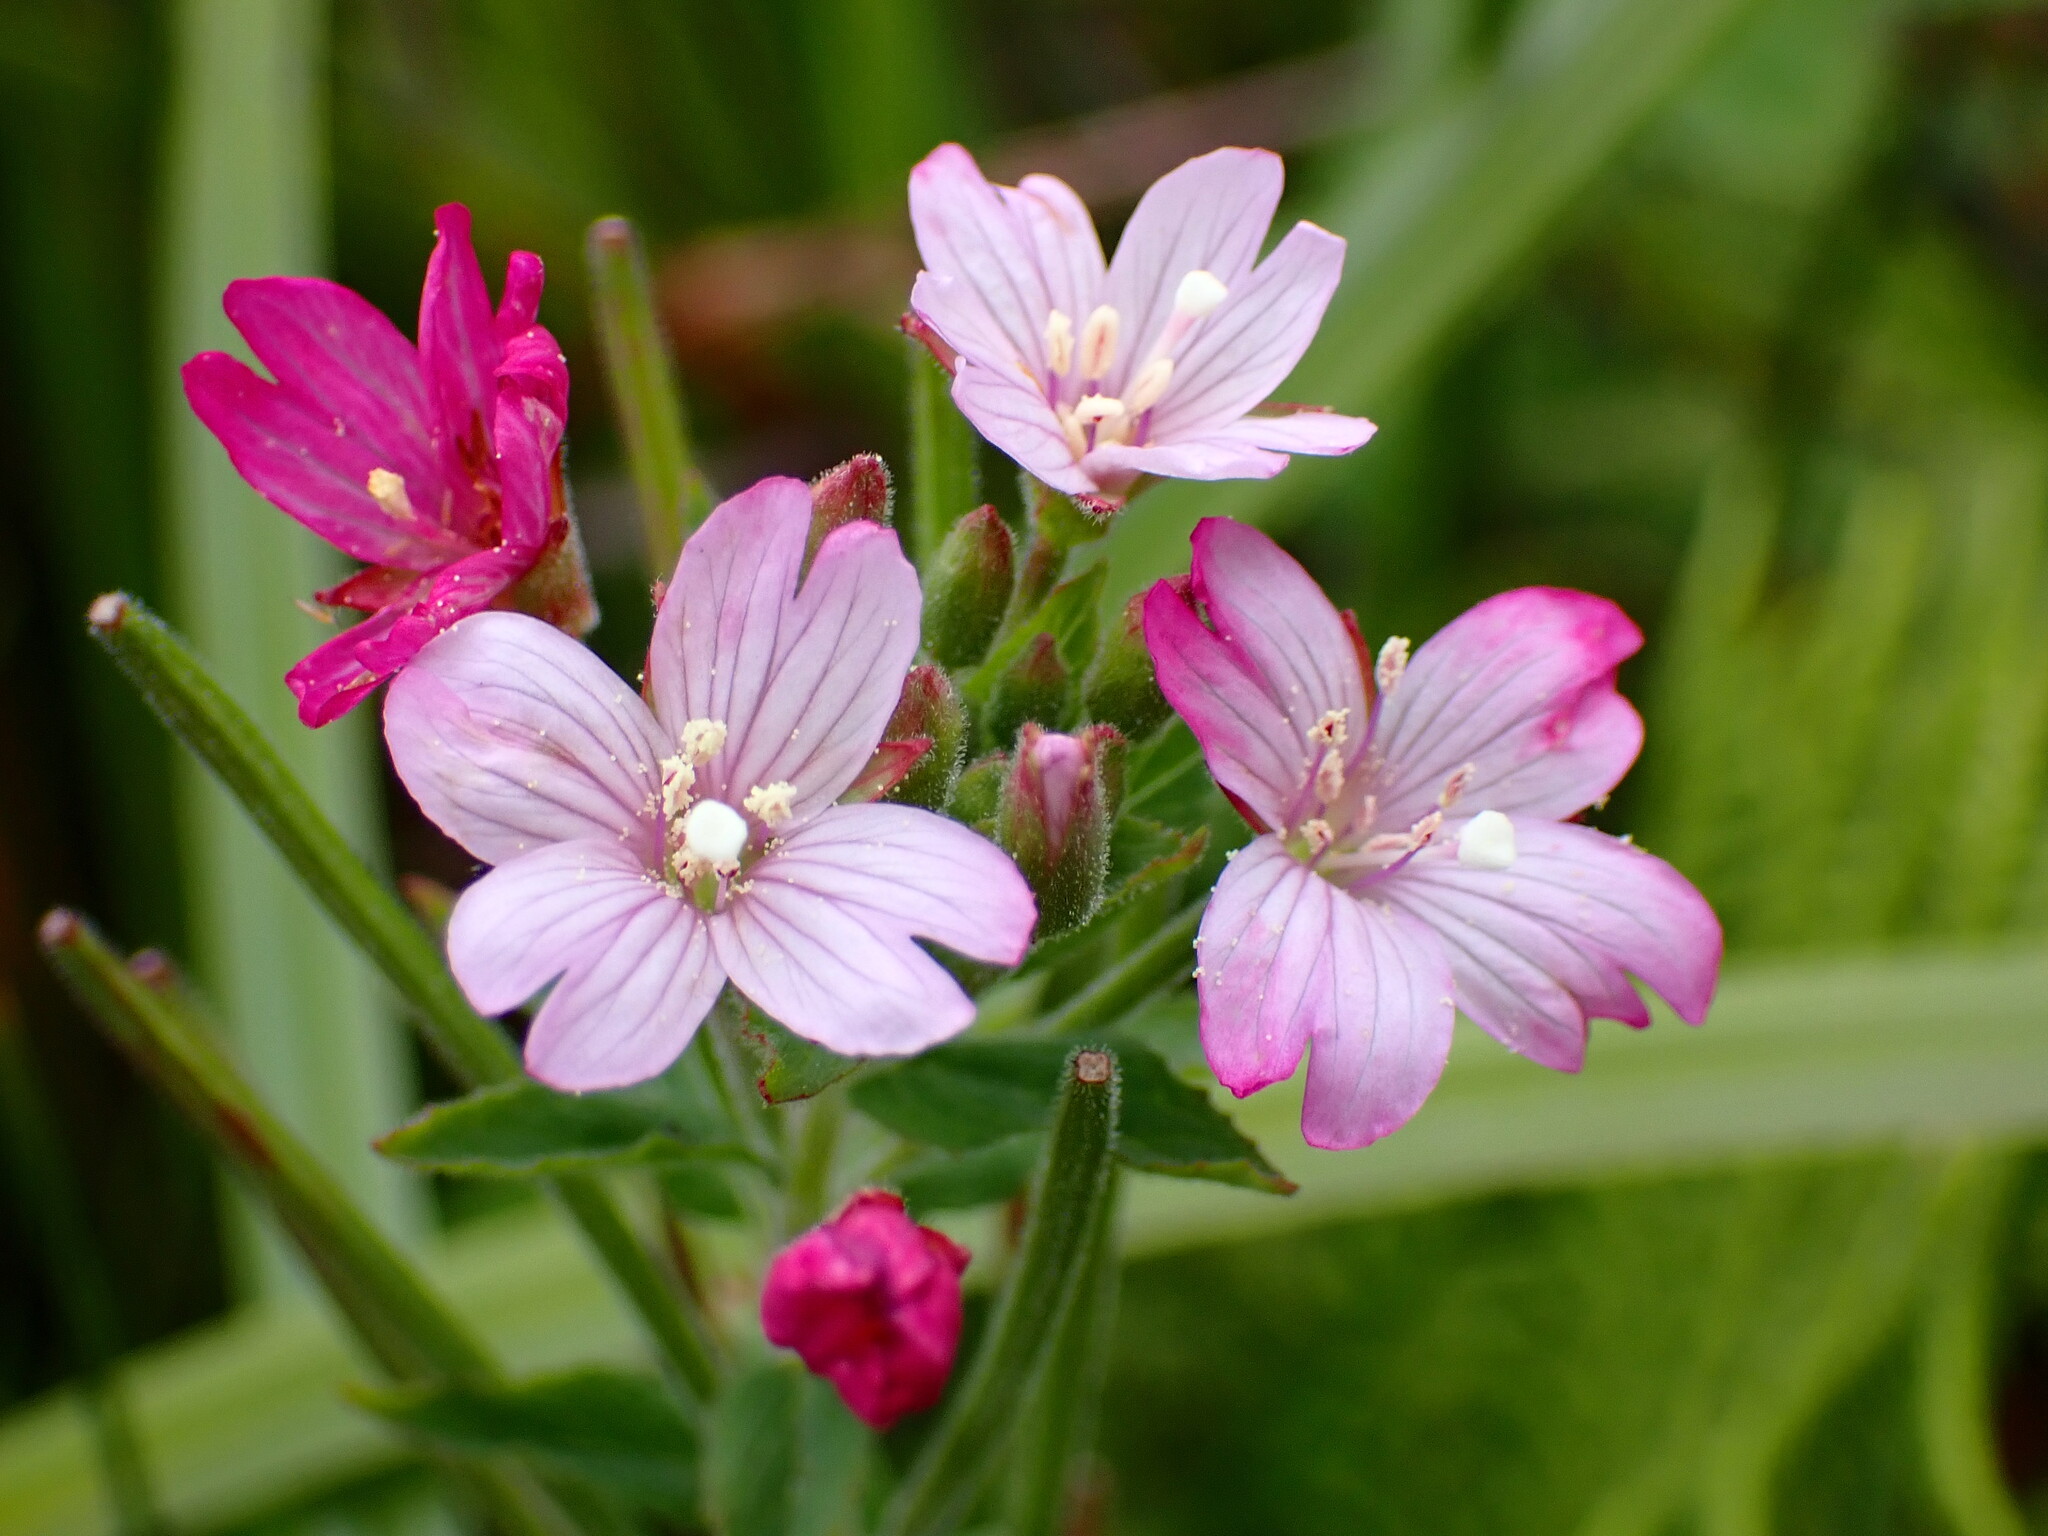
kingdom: Plantae
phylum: Tracheophyta
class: Magnoliopsida
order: Myrtales
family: Onagraceae
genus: Epilobium
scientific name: Epilobium ciliatum
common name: American willowherb
